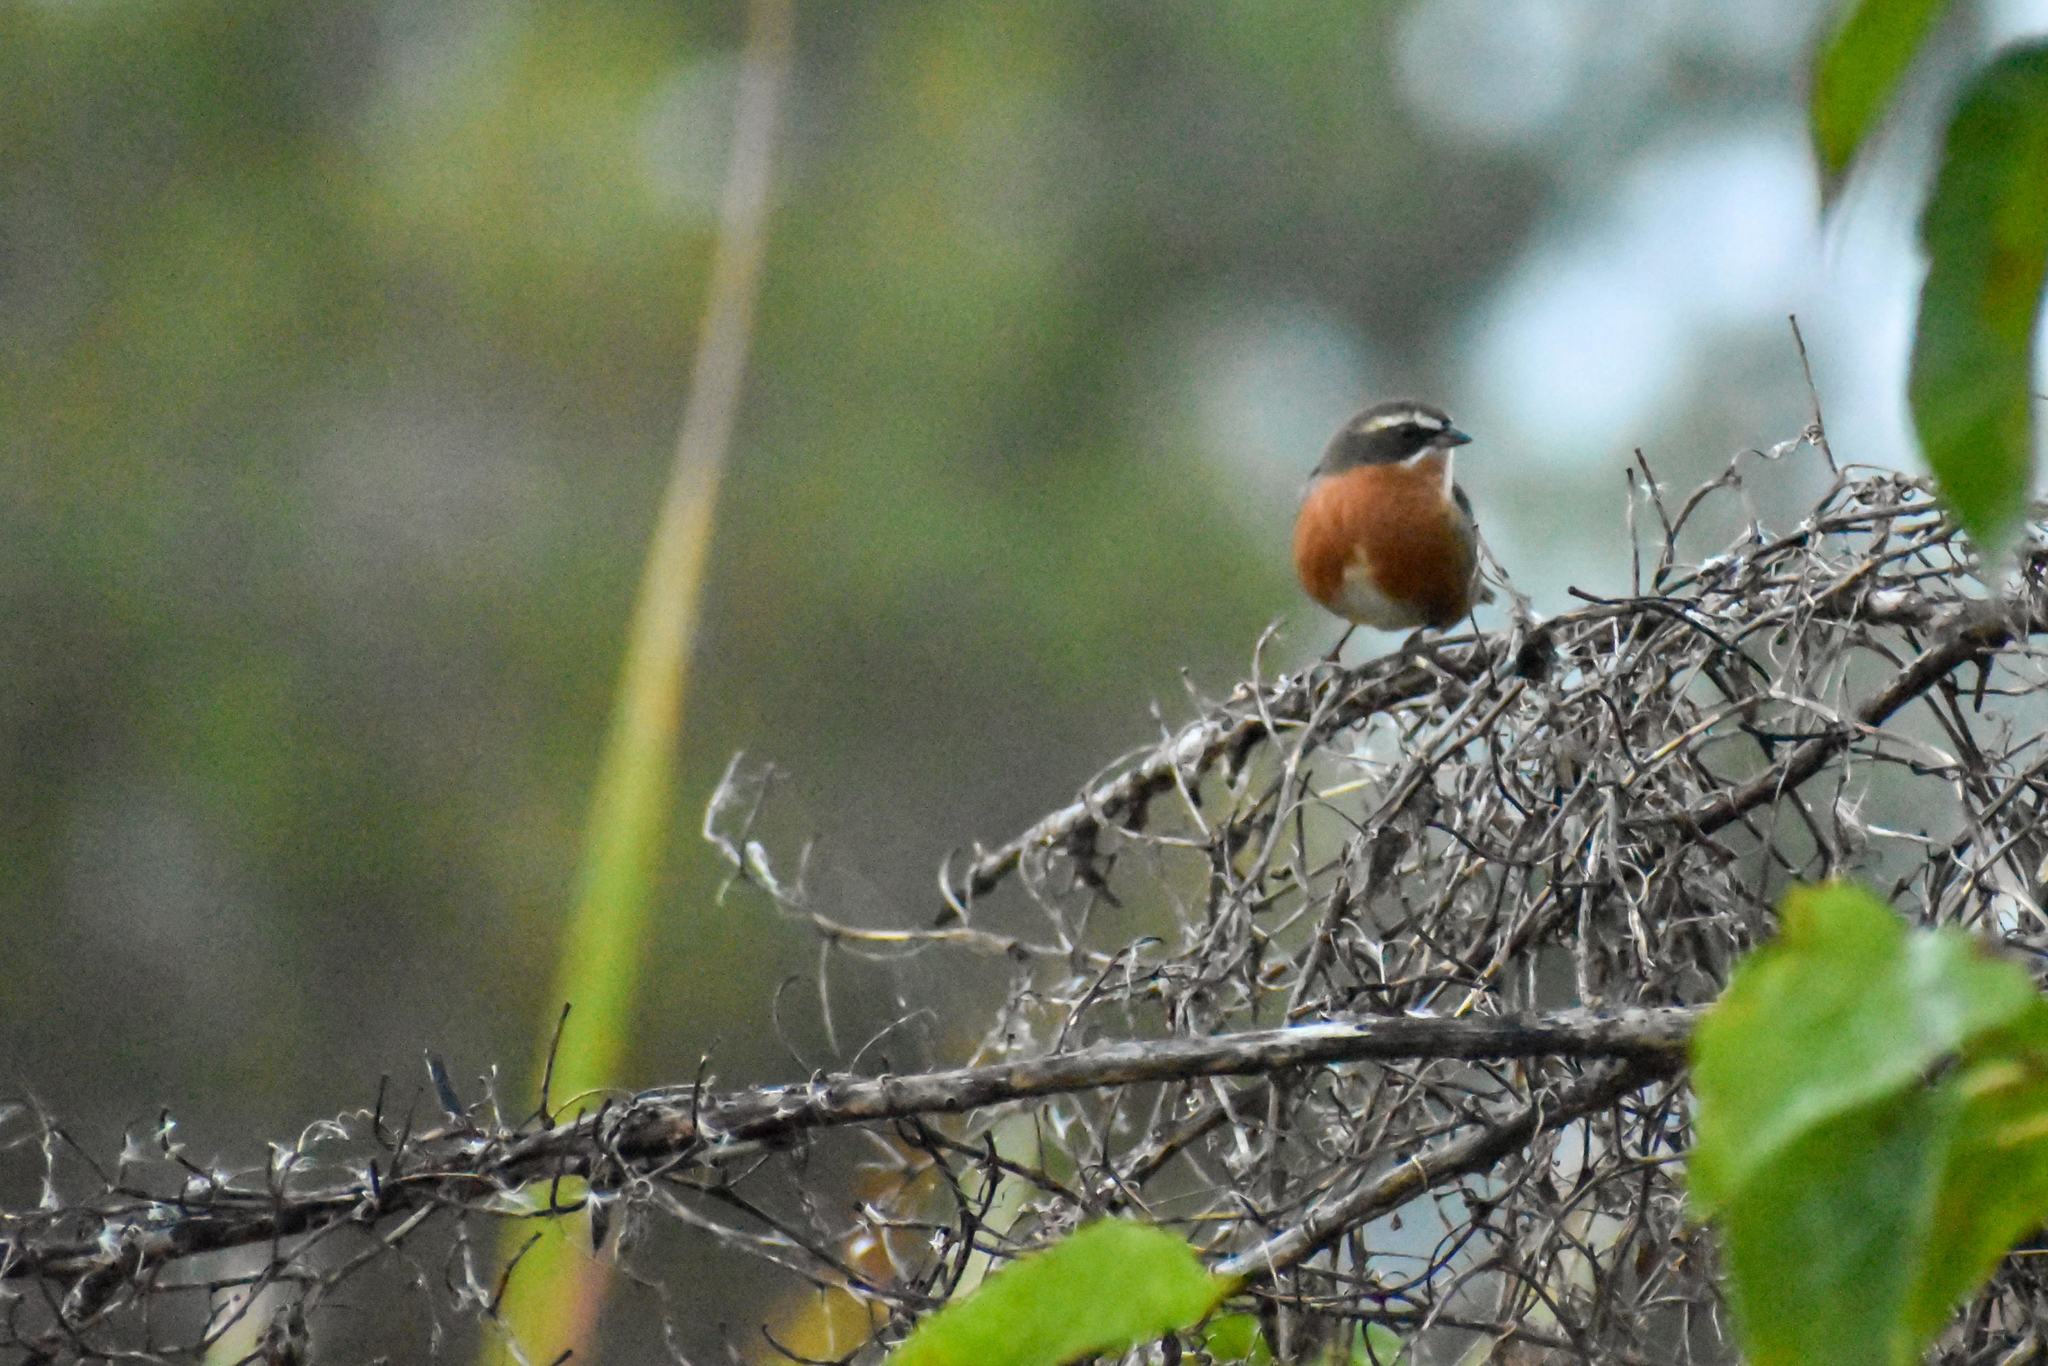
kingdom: Animalia
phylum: Chordata
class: Aves
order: Passeriformes
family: Thraupidae
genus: Poospiza
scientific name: Poospiza nigrorufa
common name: Black-and-rufous warbling finch
